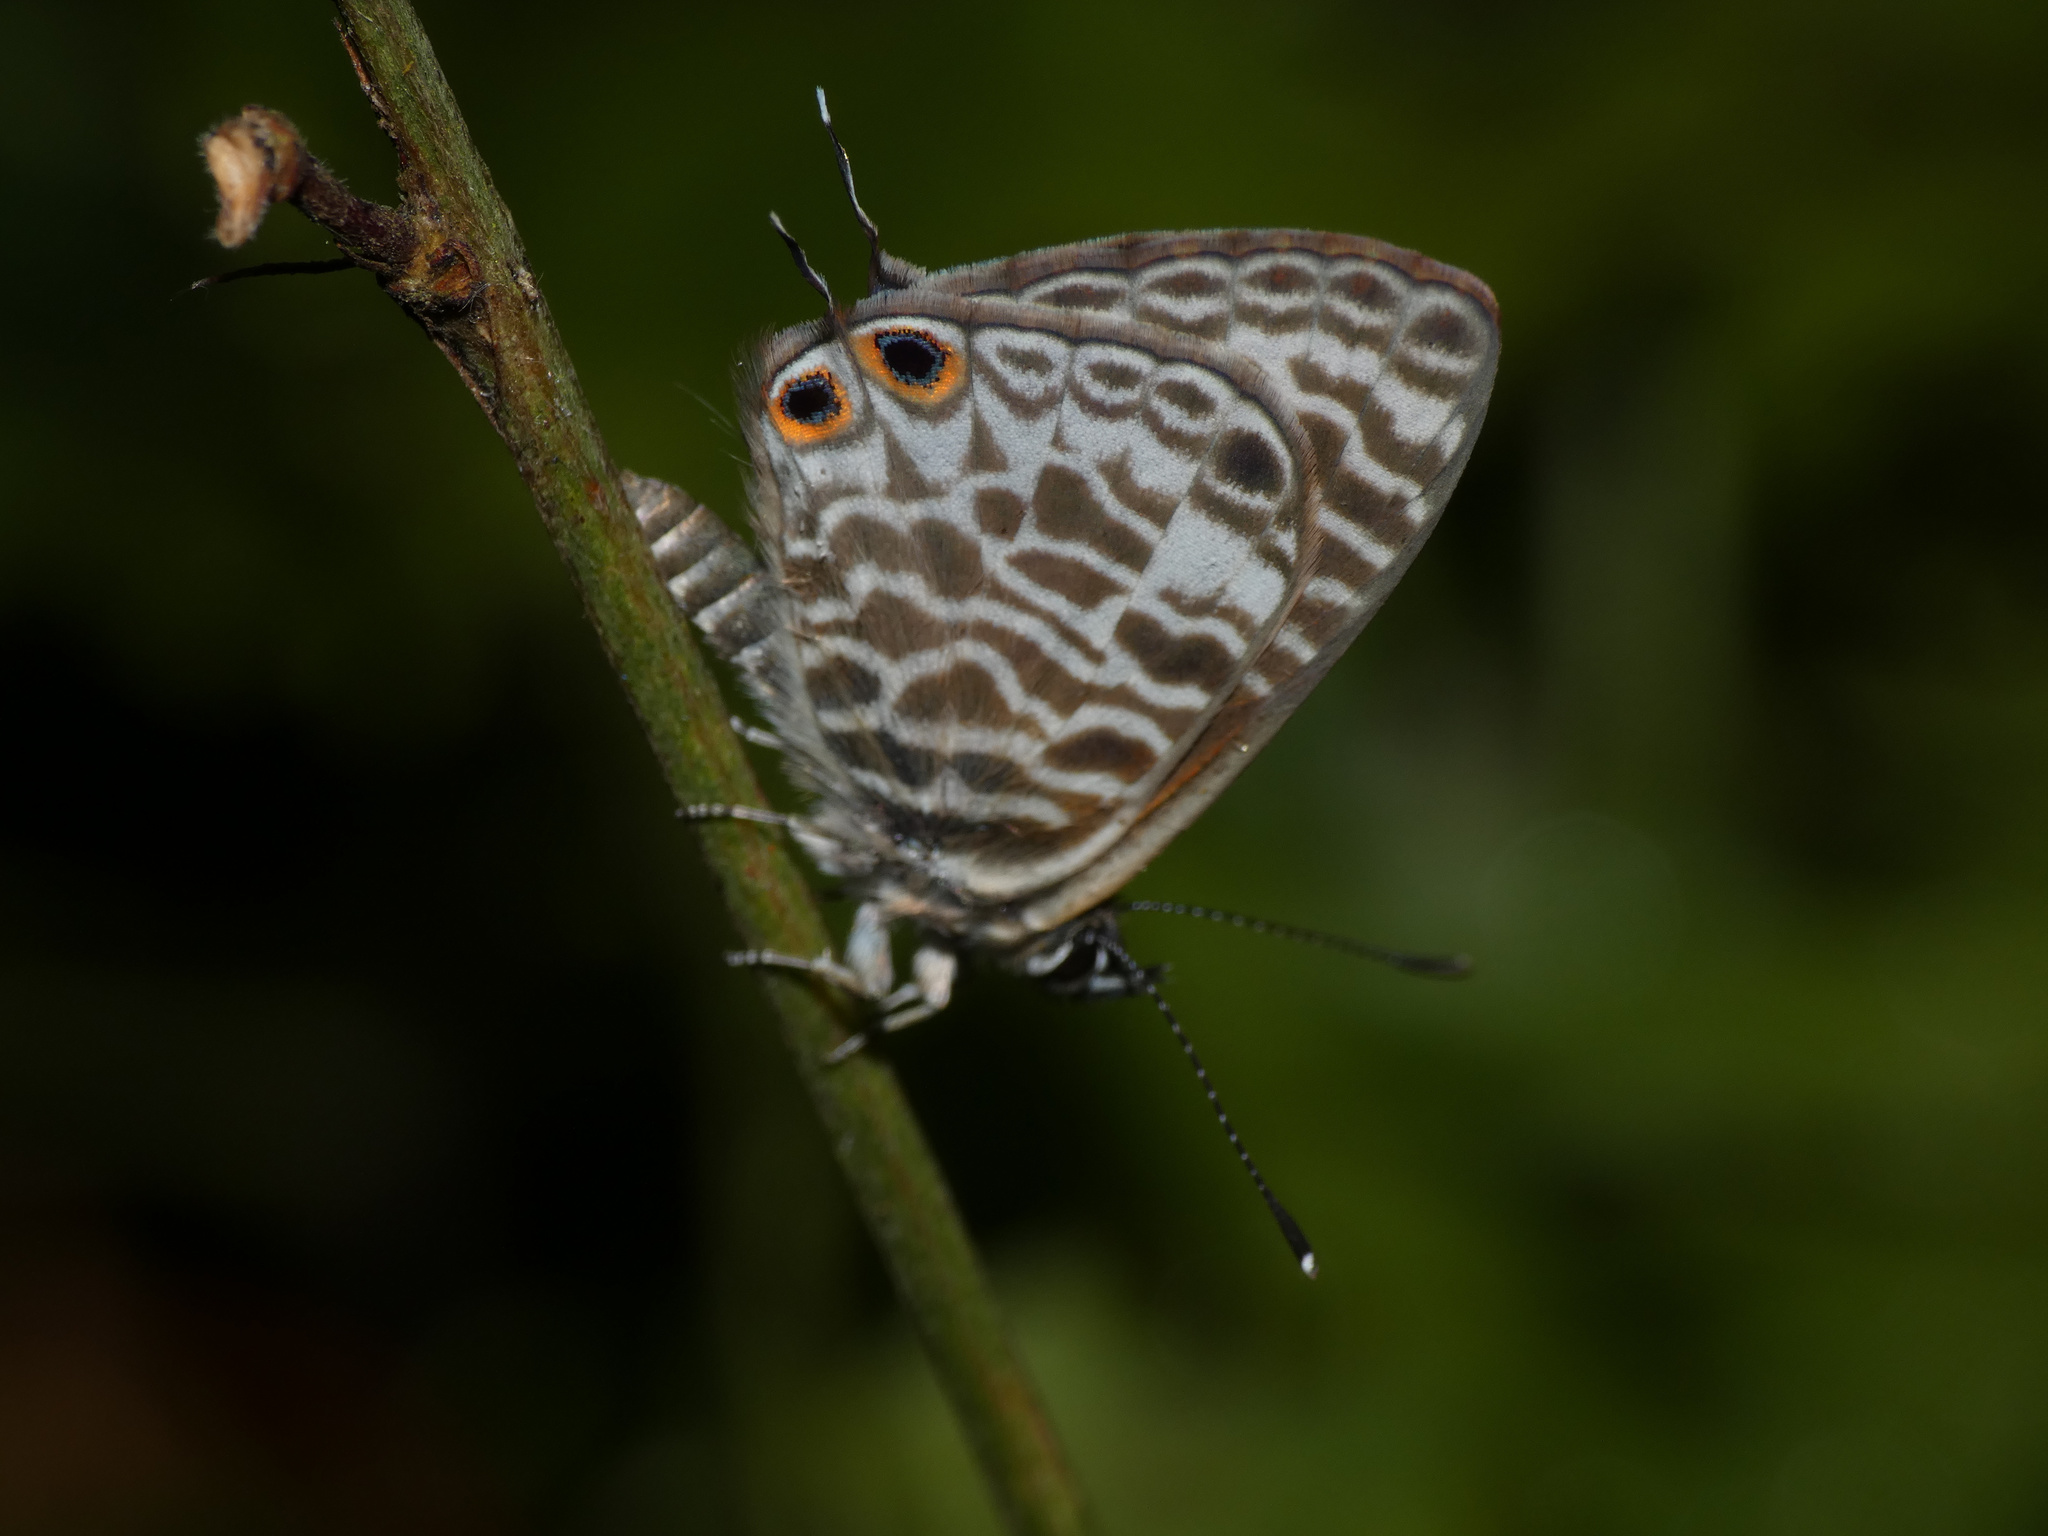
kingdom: Animalia
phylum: Arthropoda
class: Insecta
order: Lepidoptera
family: Lycaenidae
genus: Leptotes
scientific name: Leptotes
